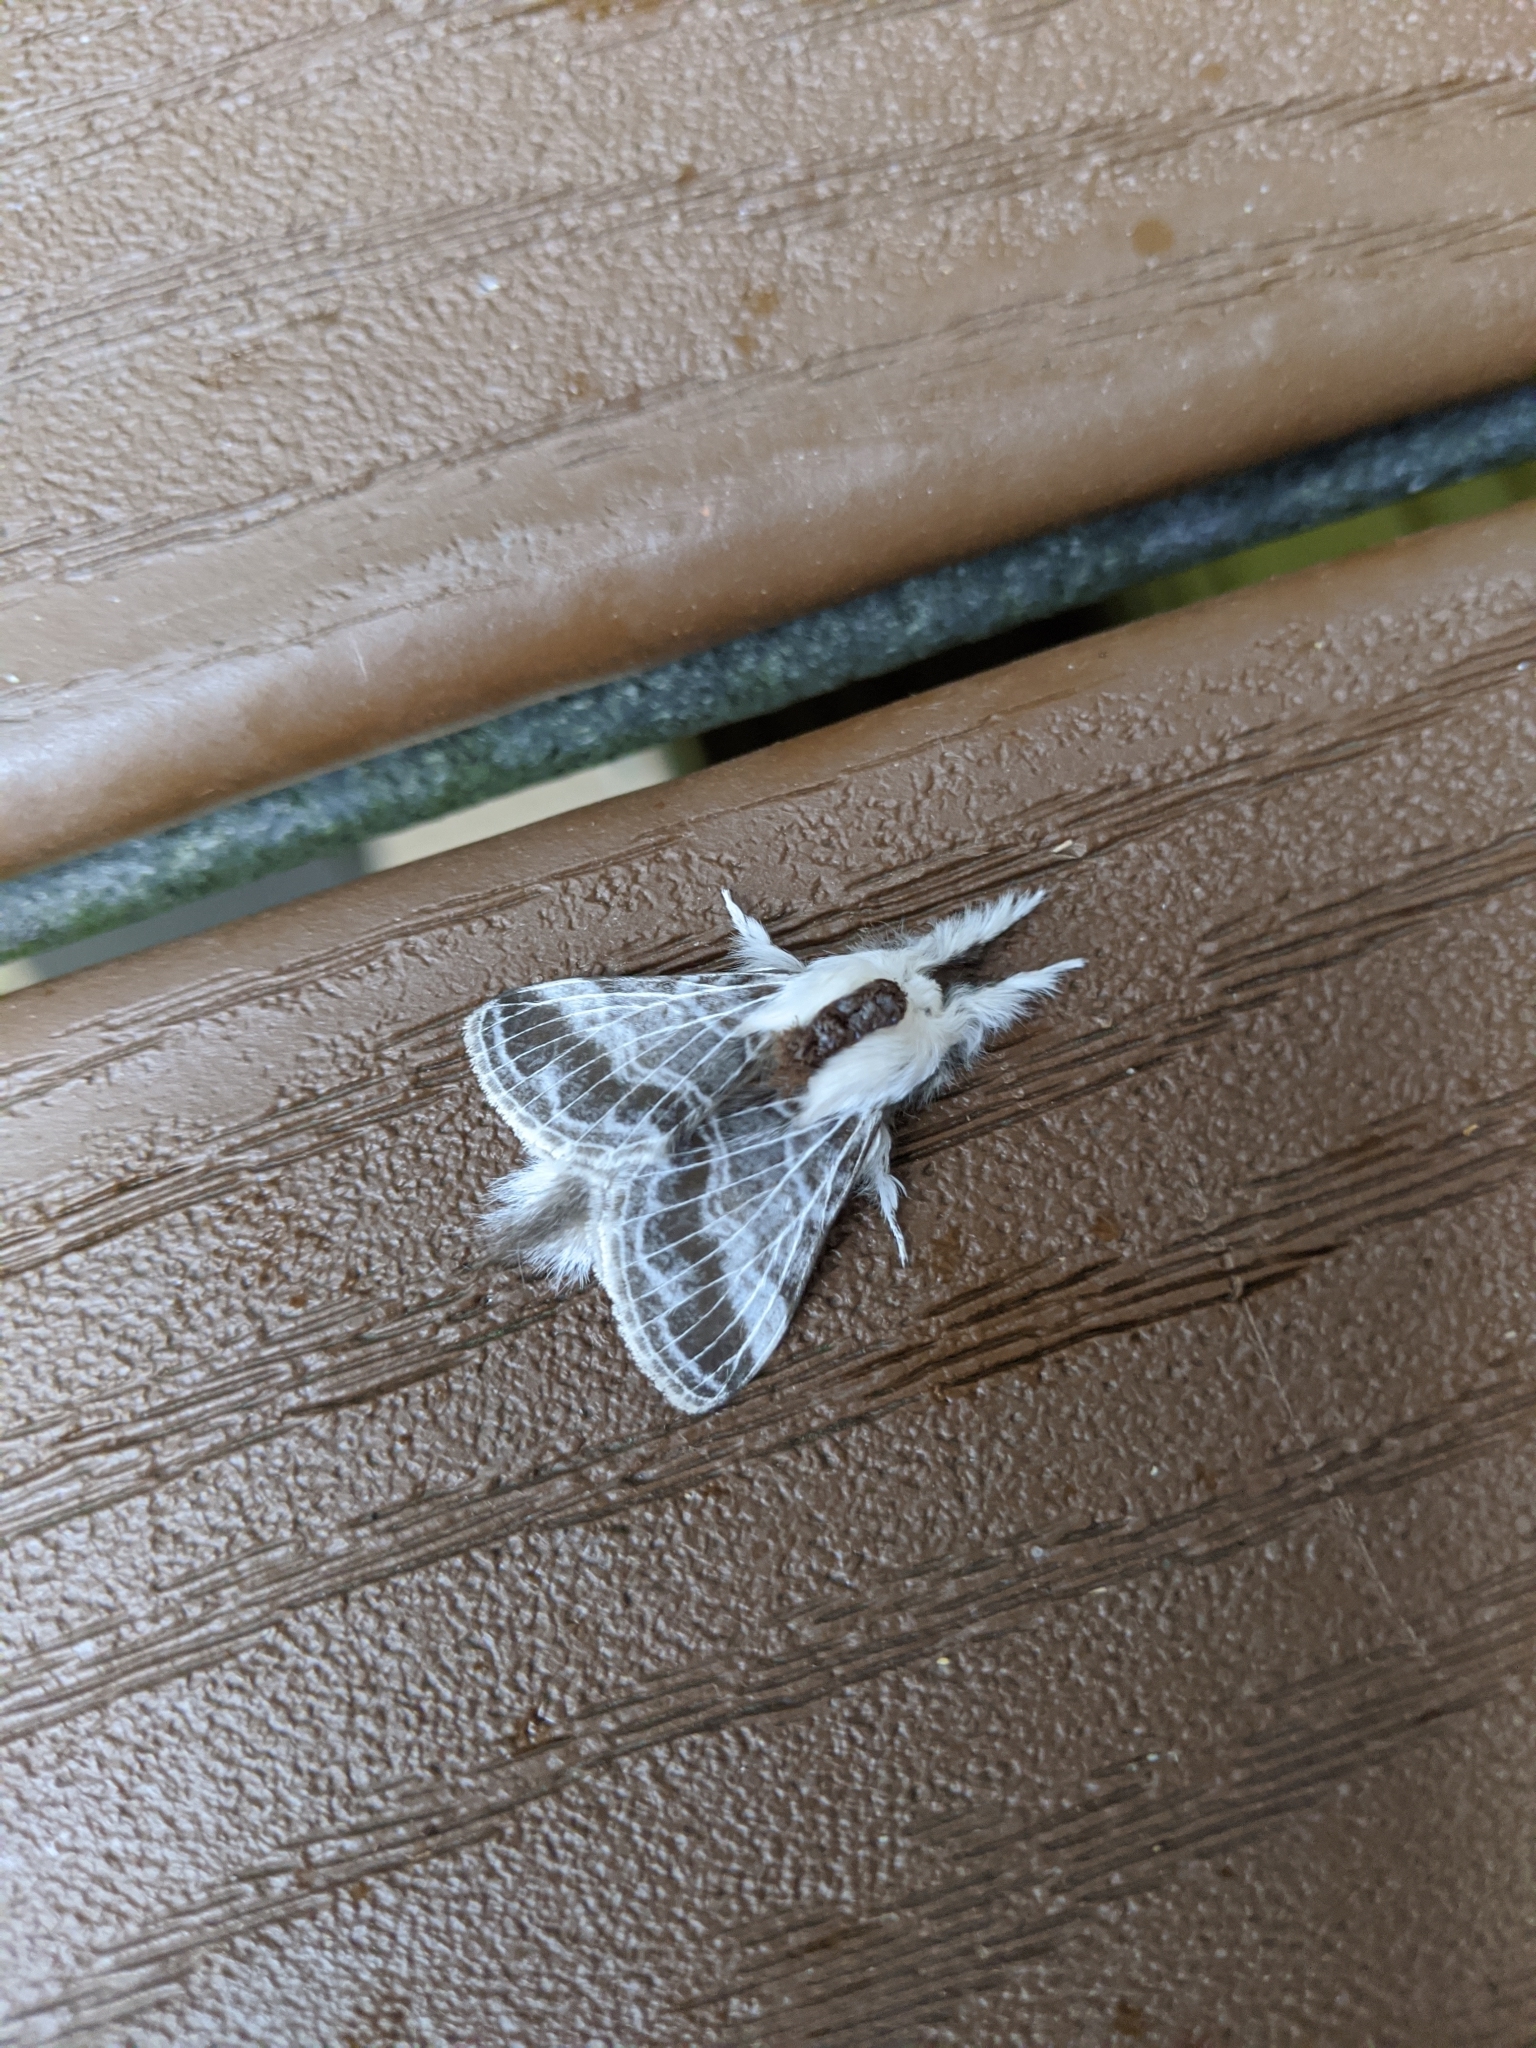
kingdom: Animalia
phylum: Arthropoda
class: Insecta
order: Lepidoptera
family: Lasiocampidae
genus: Tolype
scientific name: Tolype velleda
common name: Large tolype moth
